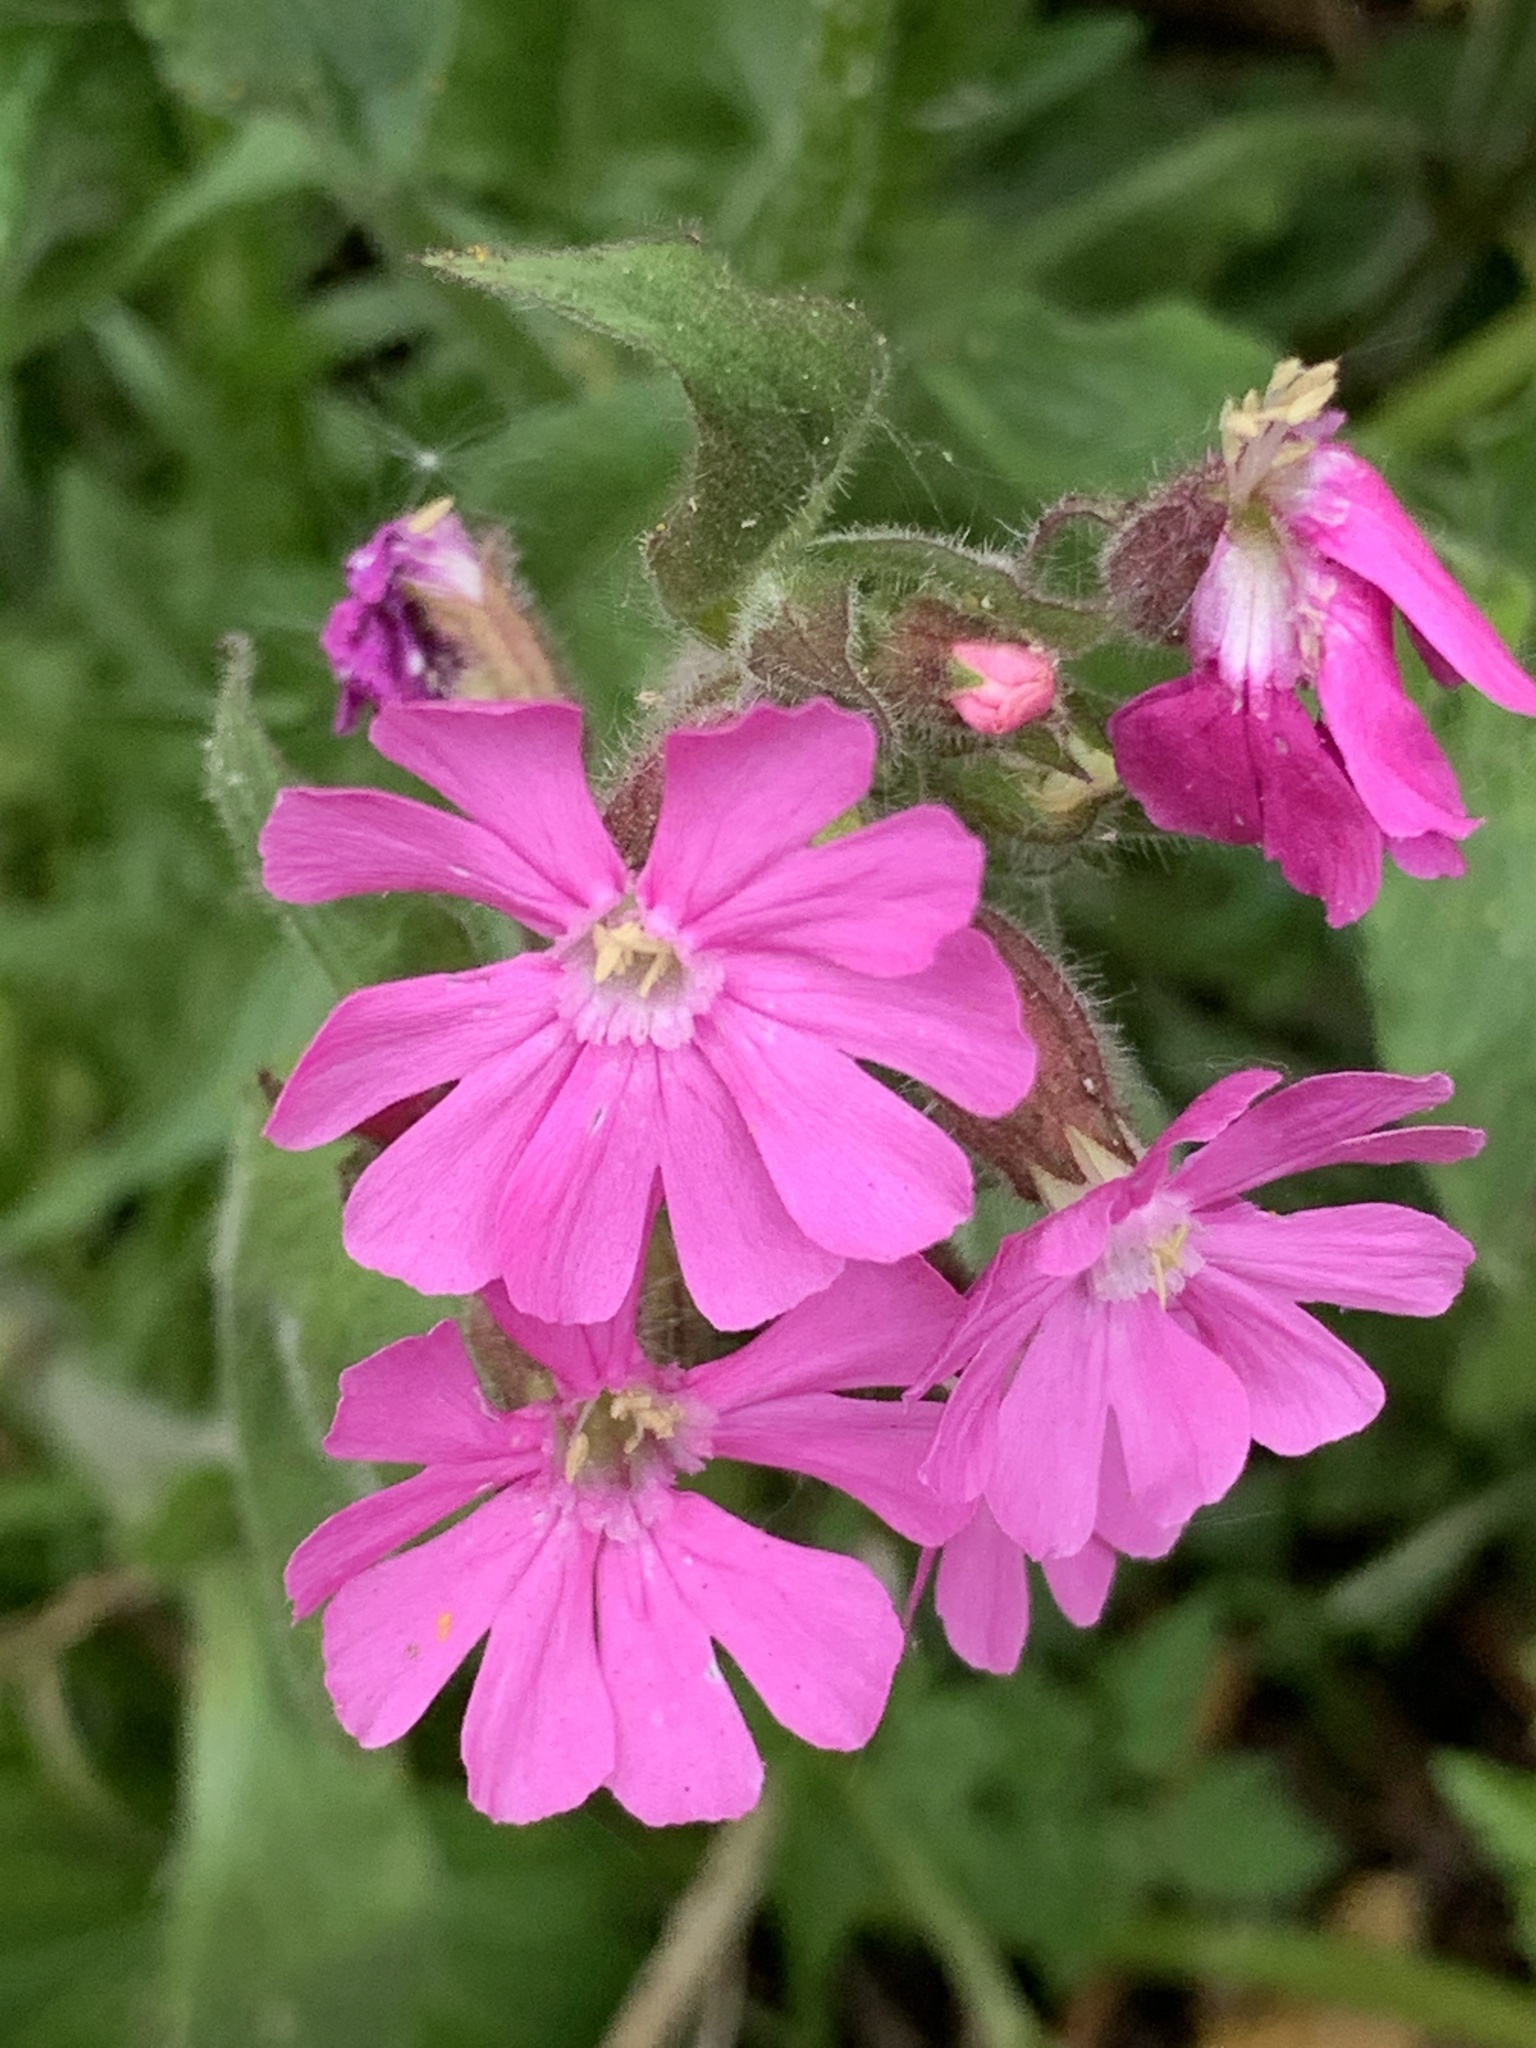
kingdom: Plantae
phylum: Tracheophyta
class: Magnoliopsida
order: Caryophyllales
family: Caryophyllaceae
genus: Silene
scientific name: Silene dioica
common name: Red campion
